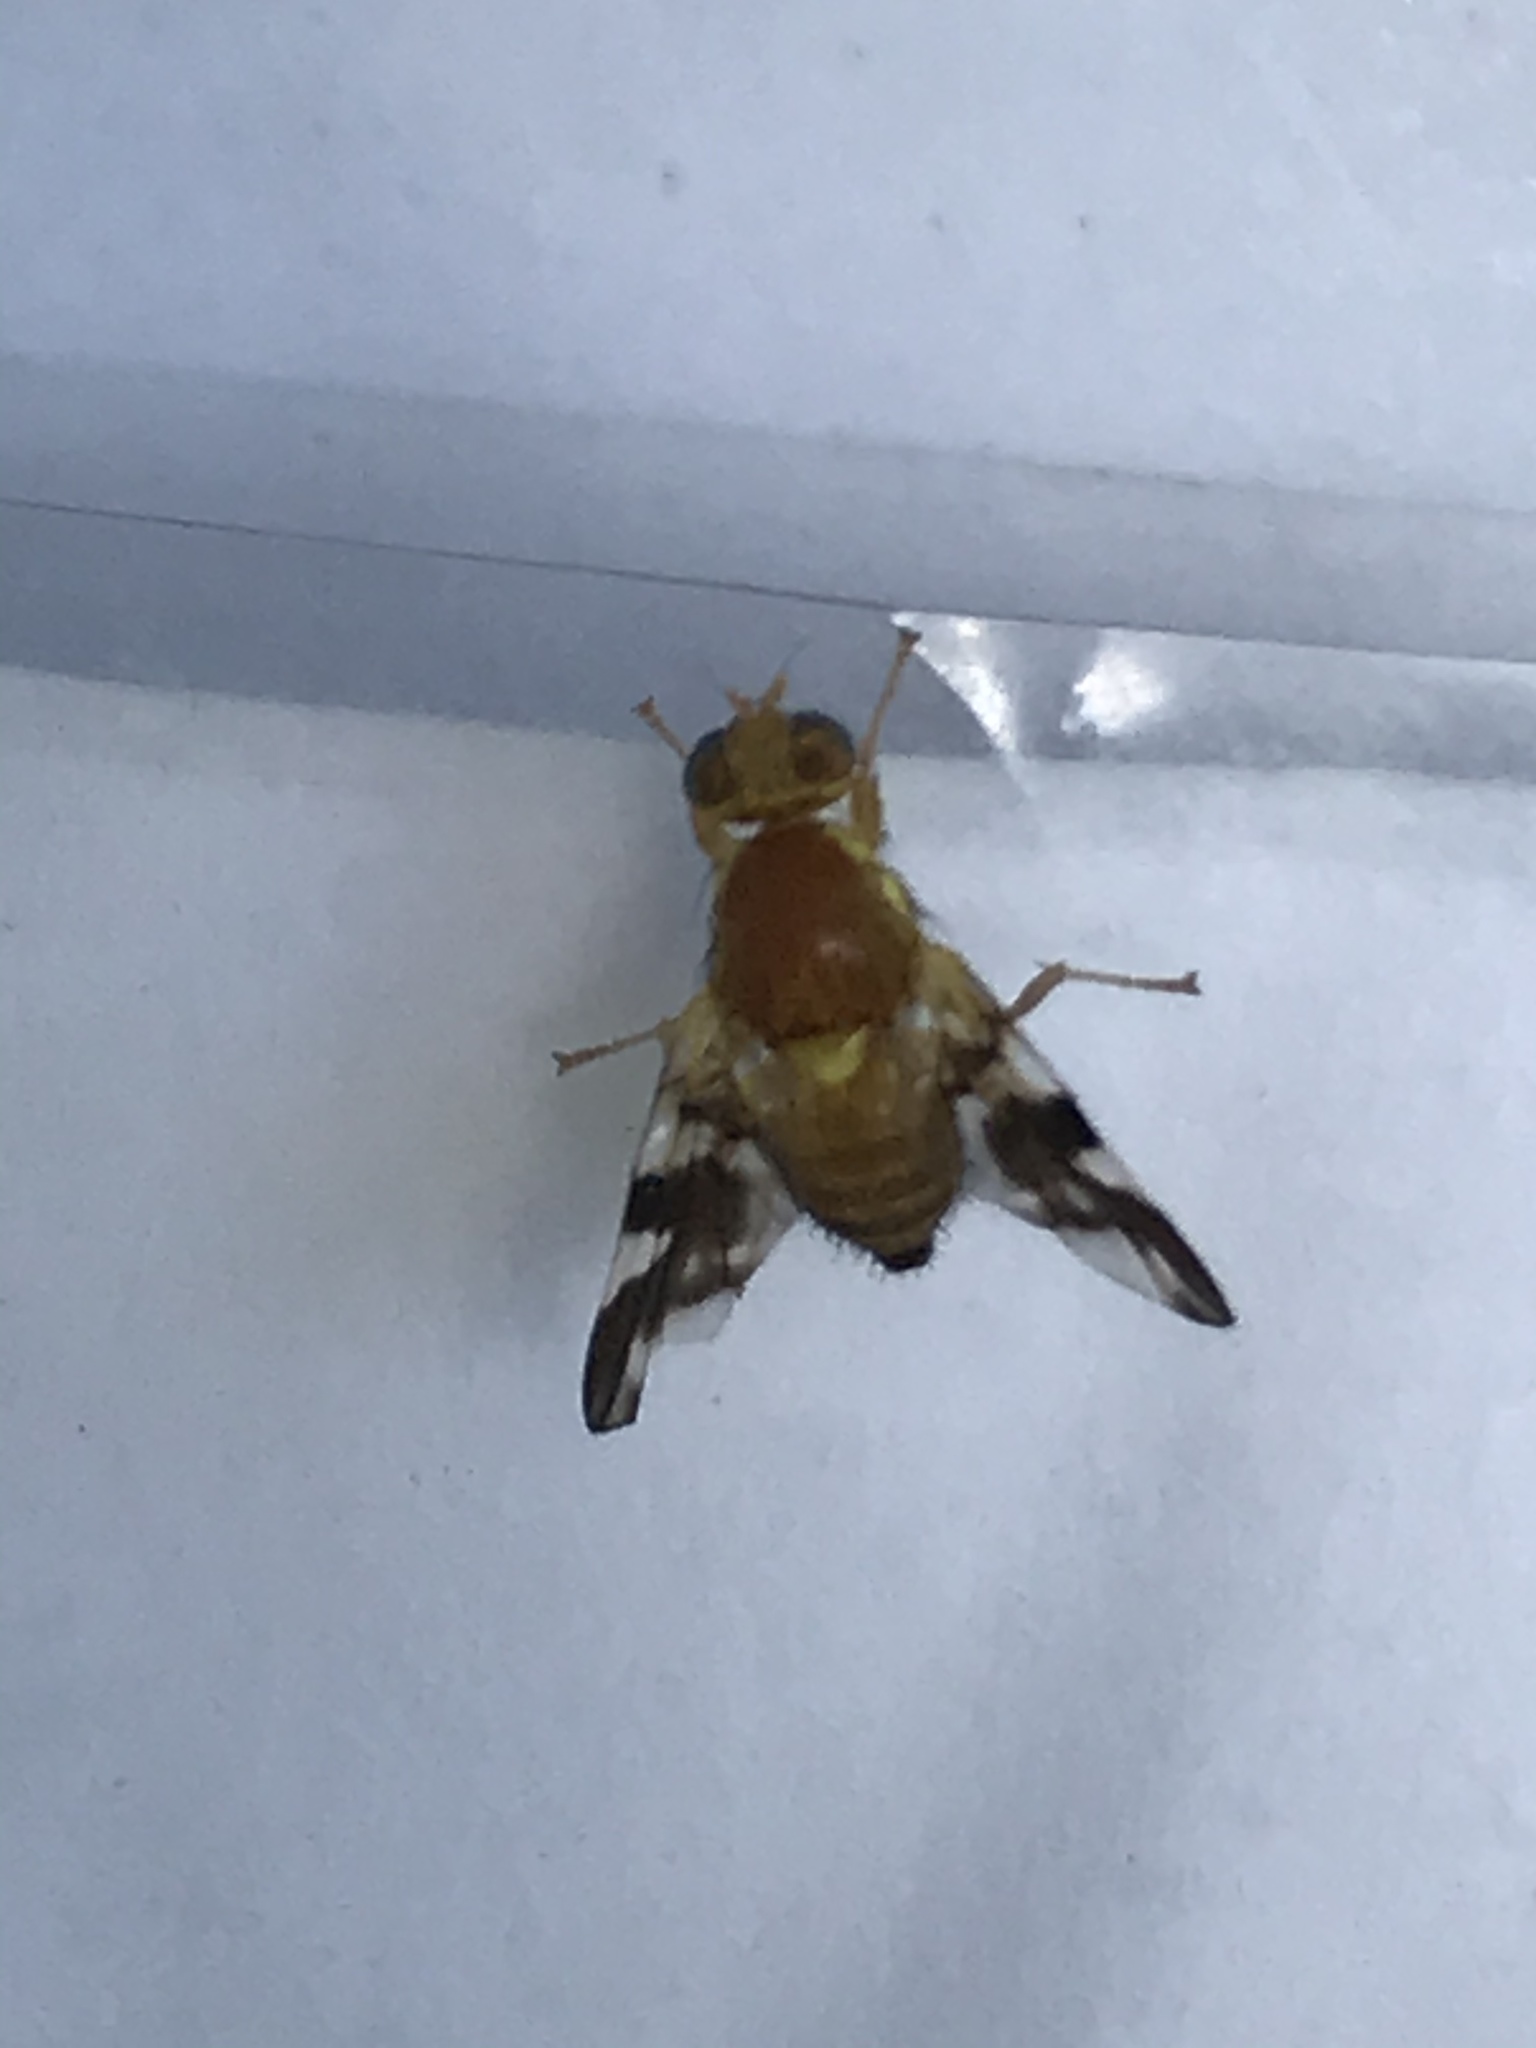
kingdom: Animalia
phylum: Arthropoda
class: Insecta
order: Diptera
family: Tephritidae
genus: Rhagoletis
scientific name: Rhagoletis suavis
